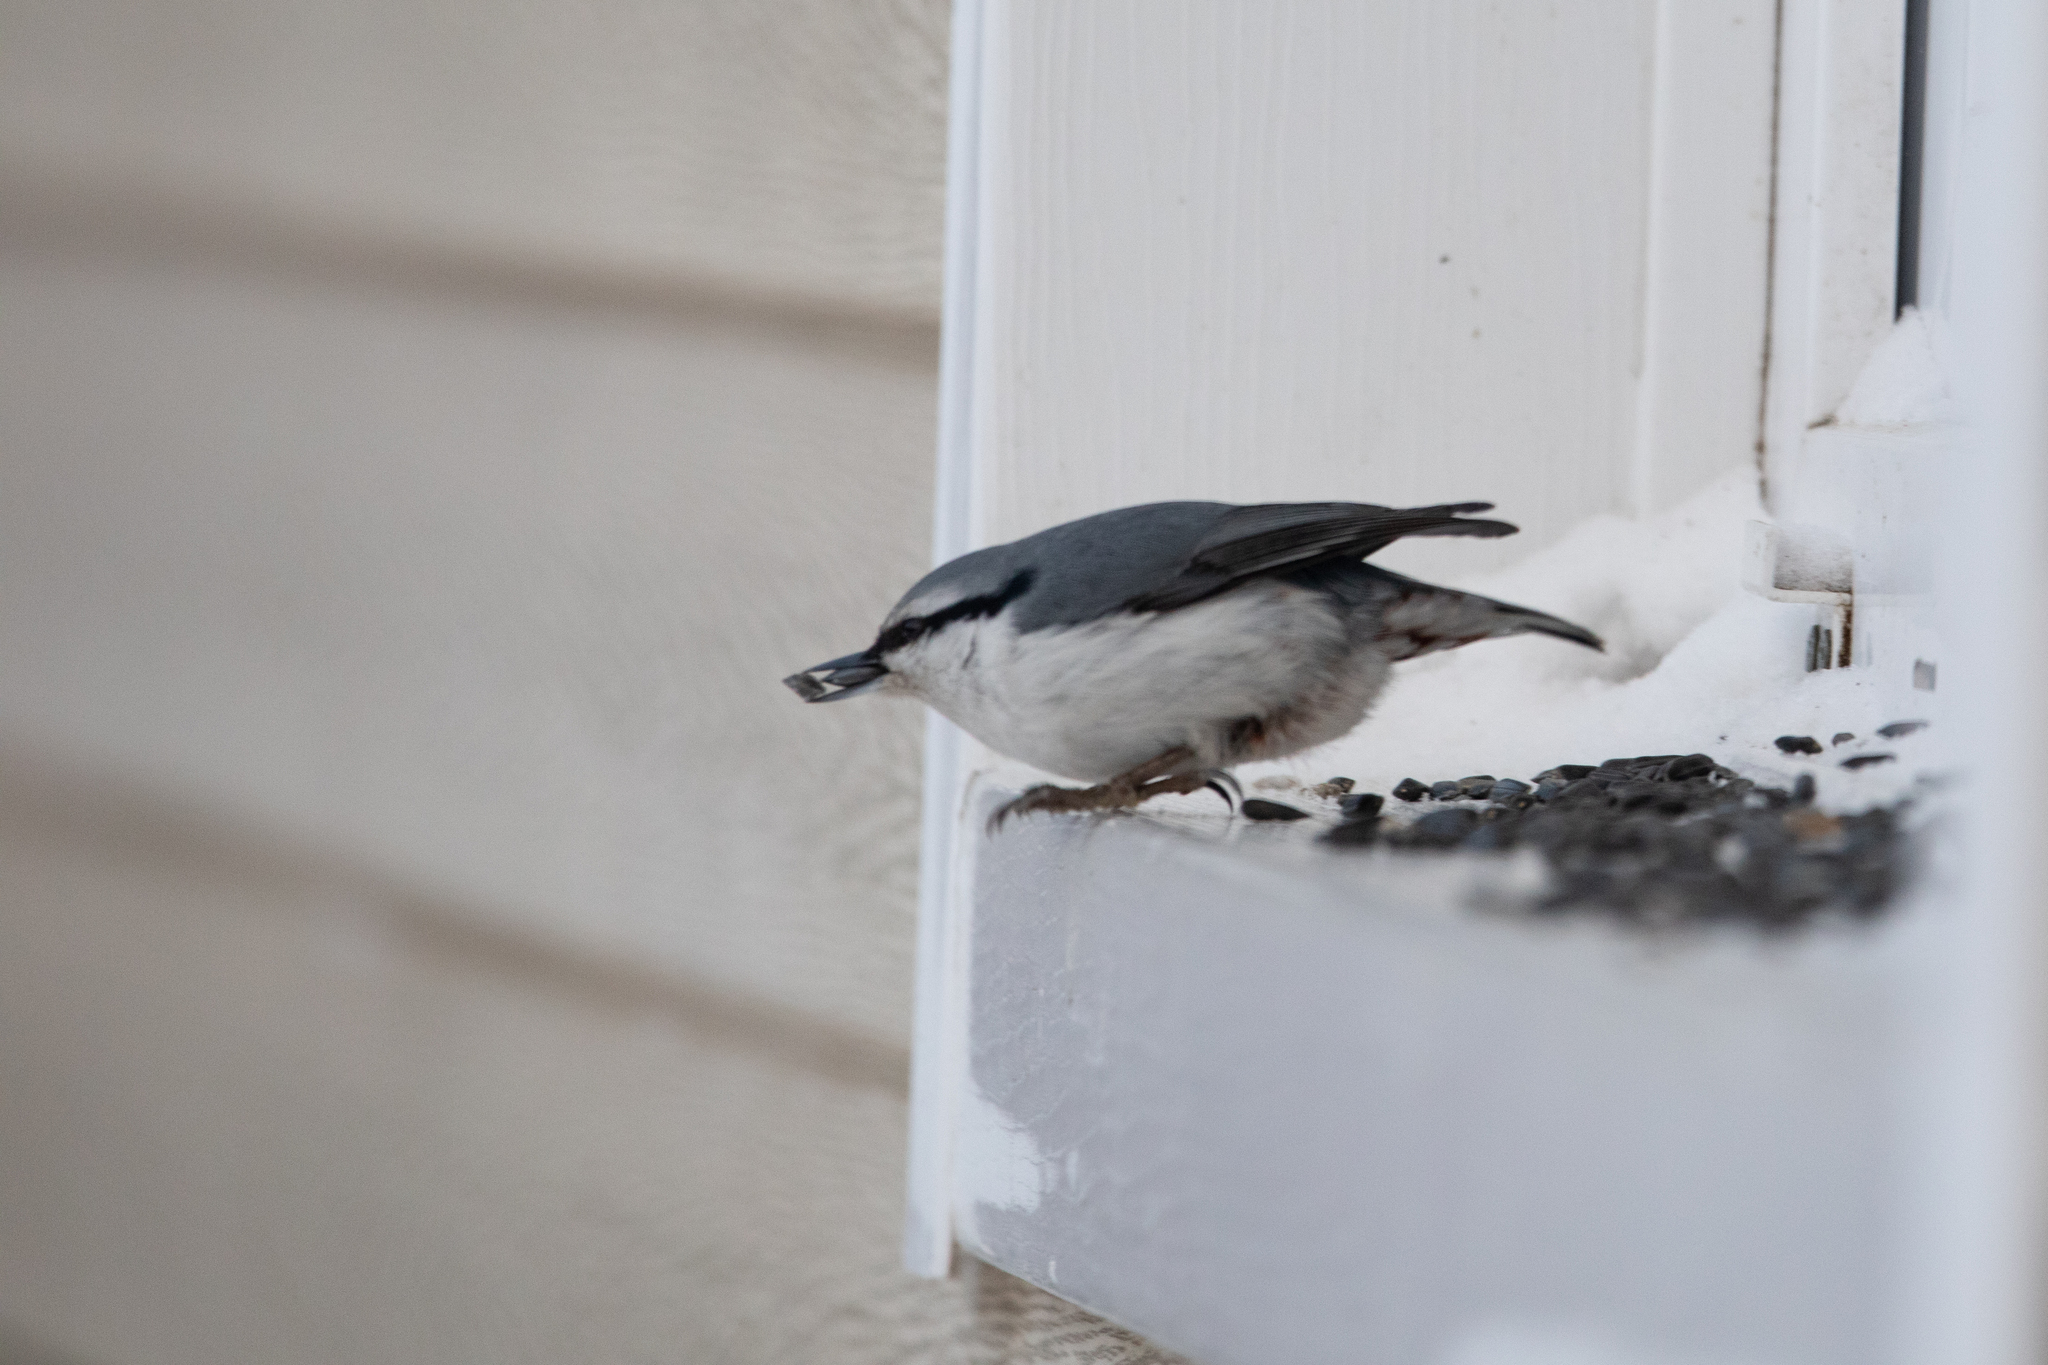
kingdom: Animalia
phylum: Chordata
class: Aves
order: Passeriformes
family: Sittidae
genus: Sitta
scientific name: Sitta europaea
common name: Eurasian nuthatch
